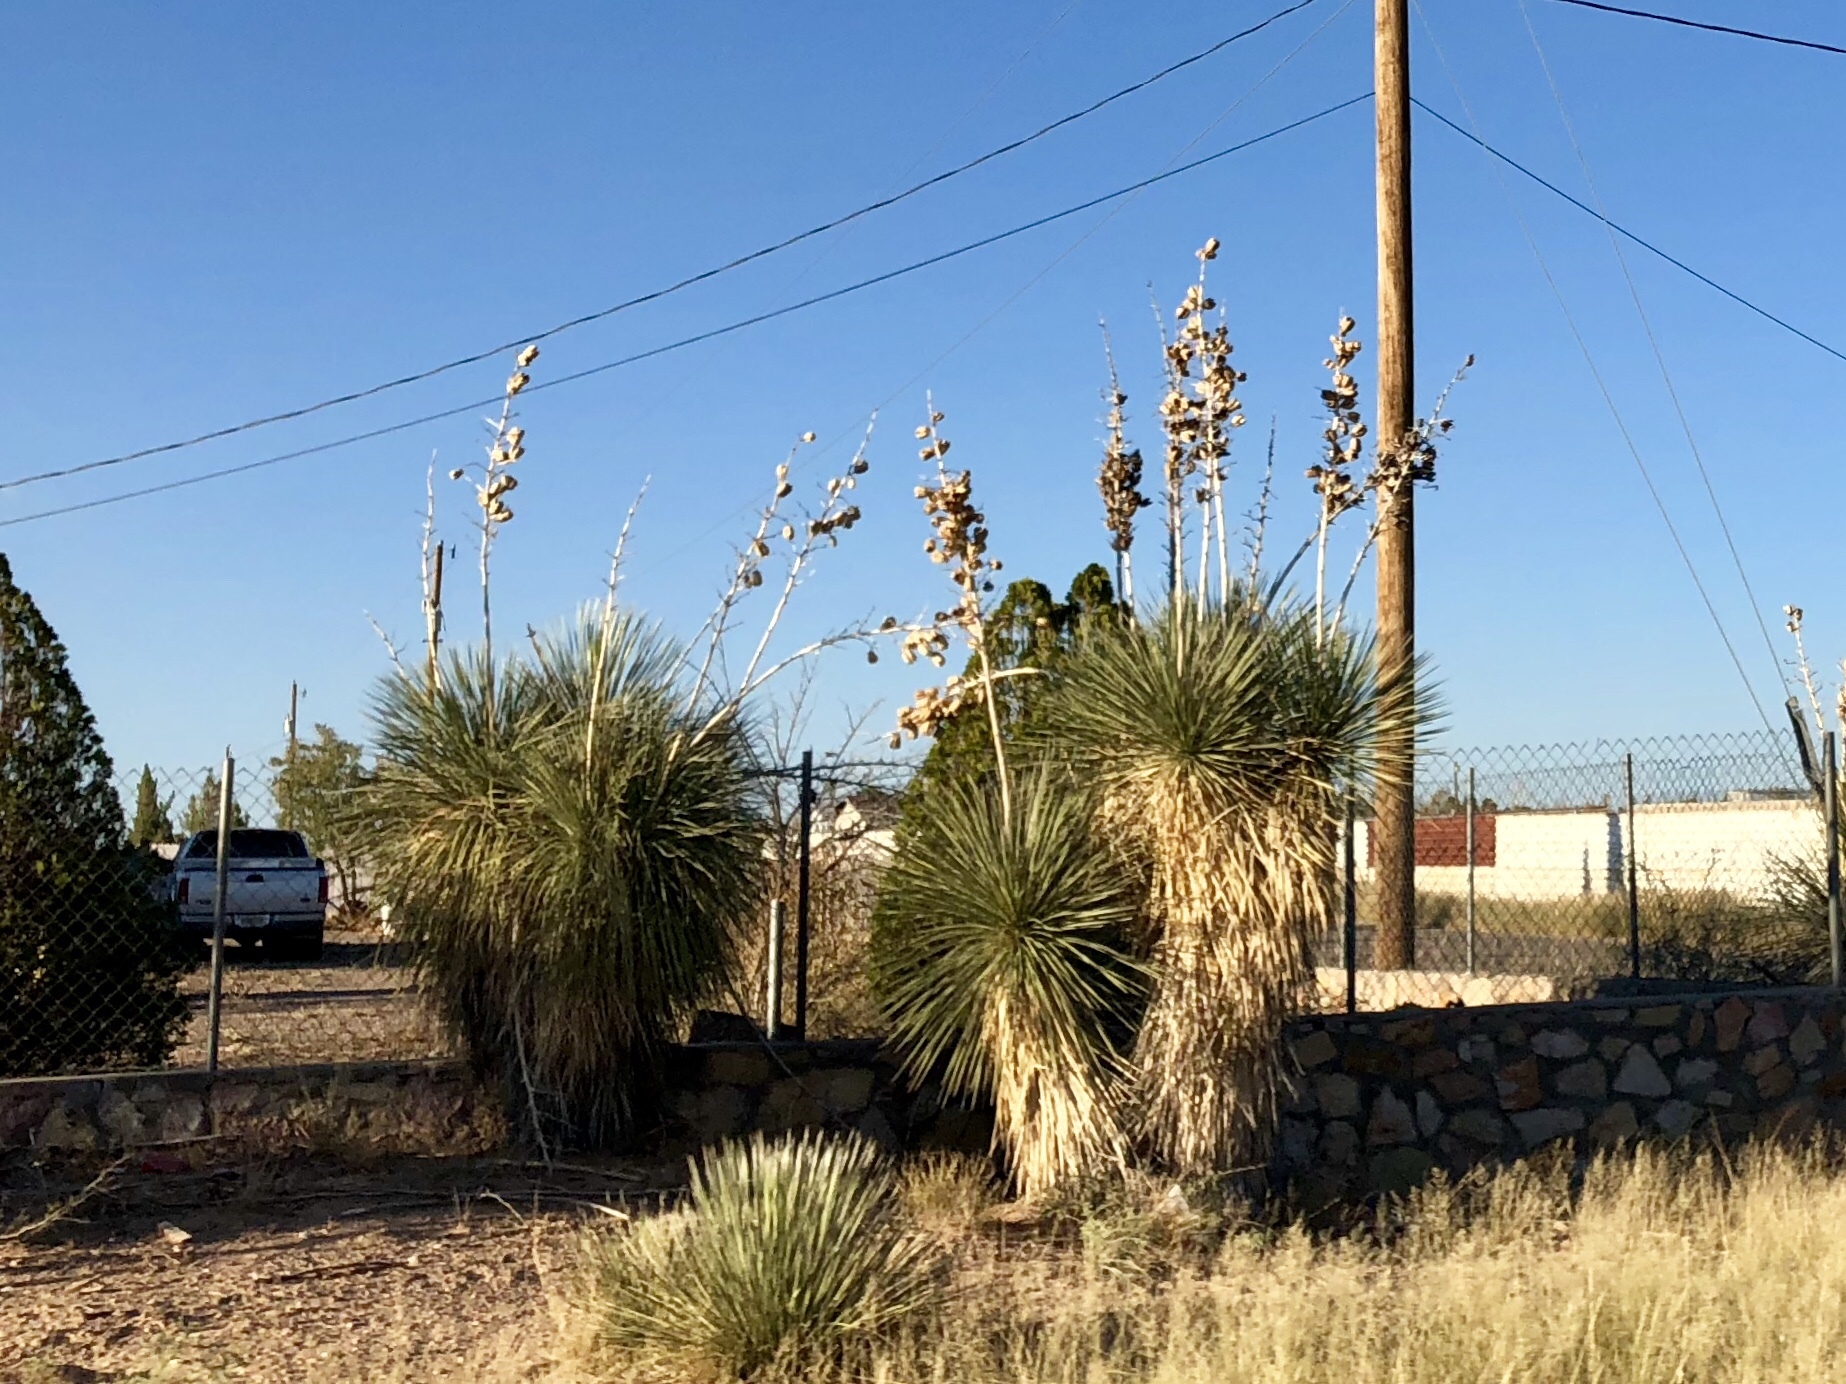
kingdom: Plantae
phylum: Tracheophyta
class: Liliopsida
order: Asparagales
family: Asparagaceae
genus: Yucca
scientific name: Yucca elata
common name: Palmella
